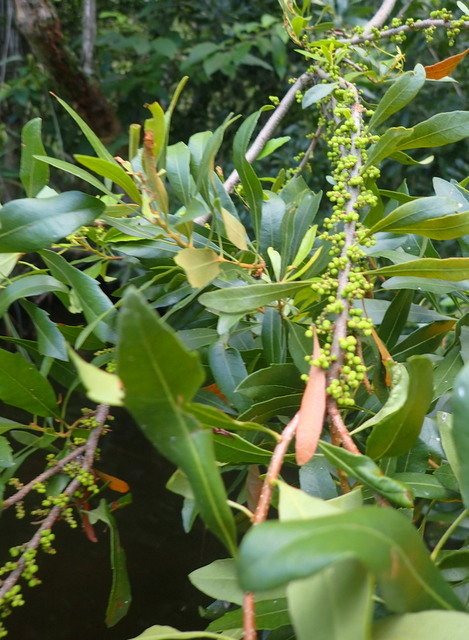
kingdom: Plantae
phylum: Tracheophyta
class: Magnoliopsida
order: Fagales
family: Myricaceae
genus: Morella
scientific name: Morella cerifera
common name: Wax myrtle
